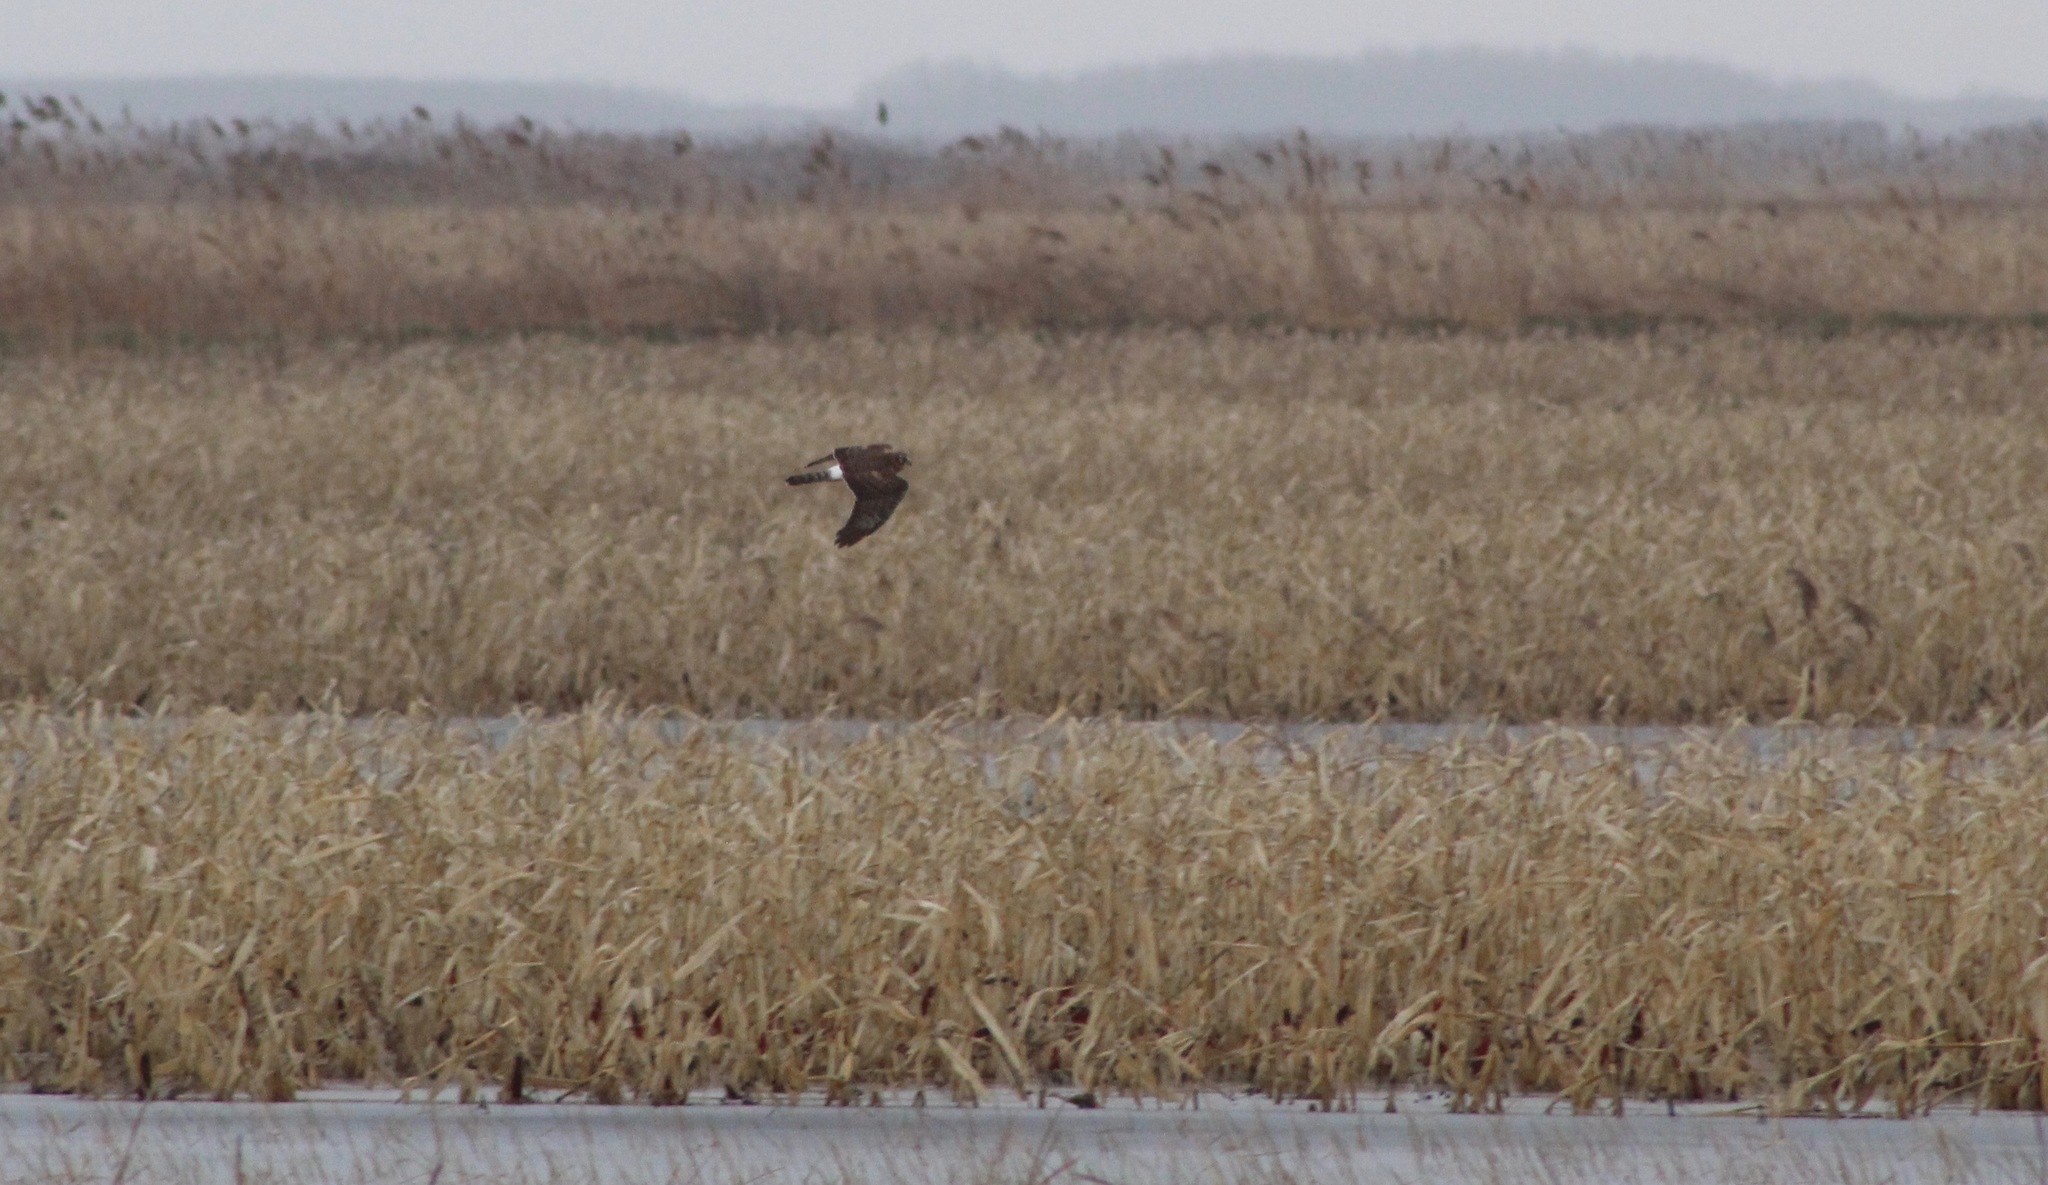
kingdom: Animalia
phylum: Chordata
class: Aves
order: Accipitriformes
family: Accipitridae
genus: Circus
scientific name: Circus cyaneus
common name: Hen harrier
